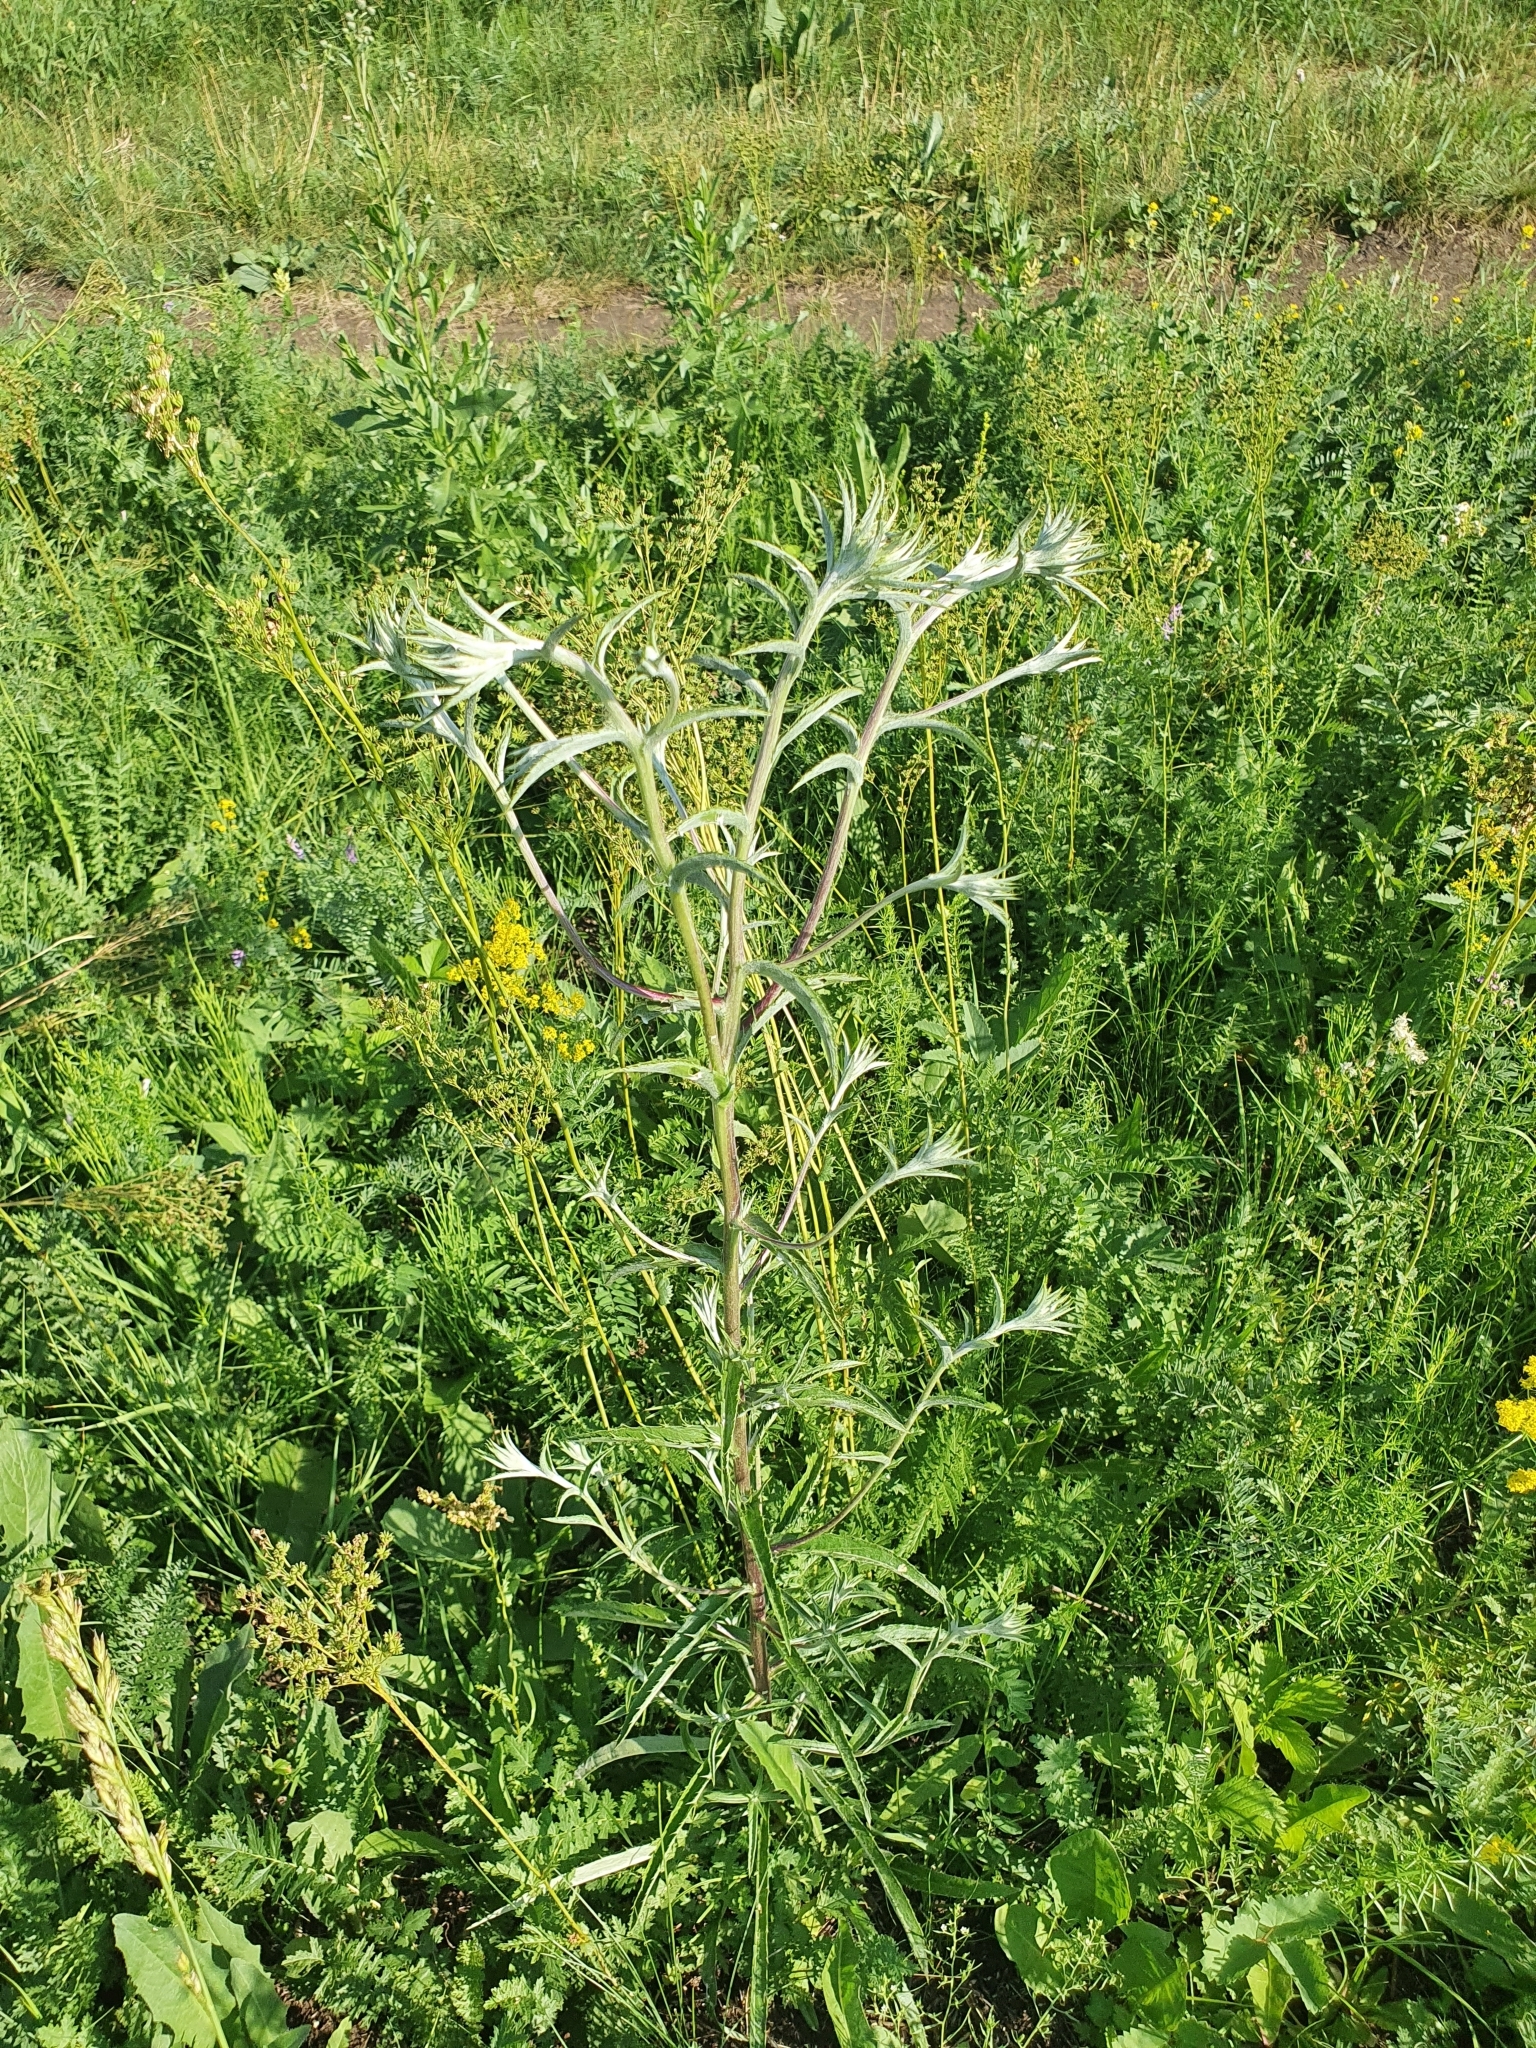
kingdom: Plantae
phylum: Tracheophyta
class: Magnoliopsida
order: Asterales
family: Asteraceae
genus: Carlina
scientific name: Carlina biebersteinii
